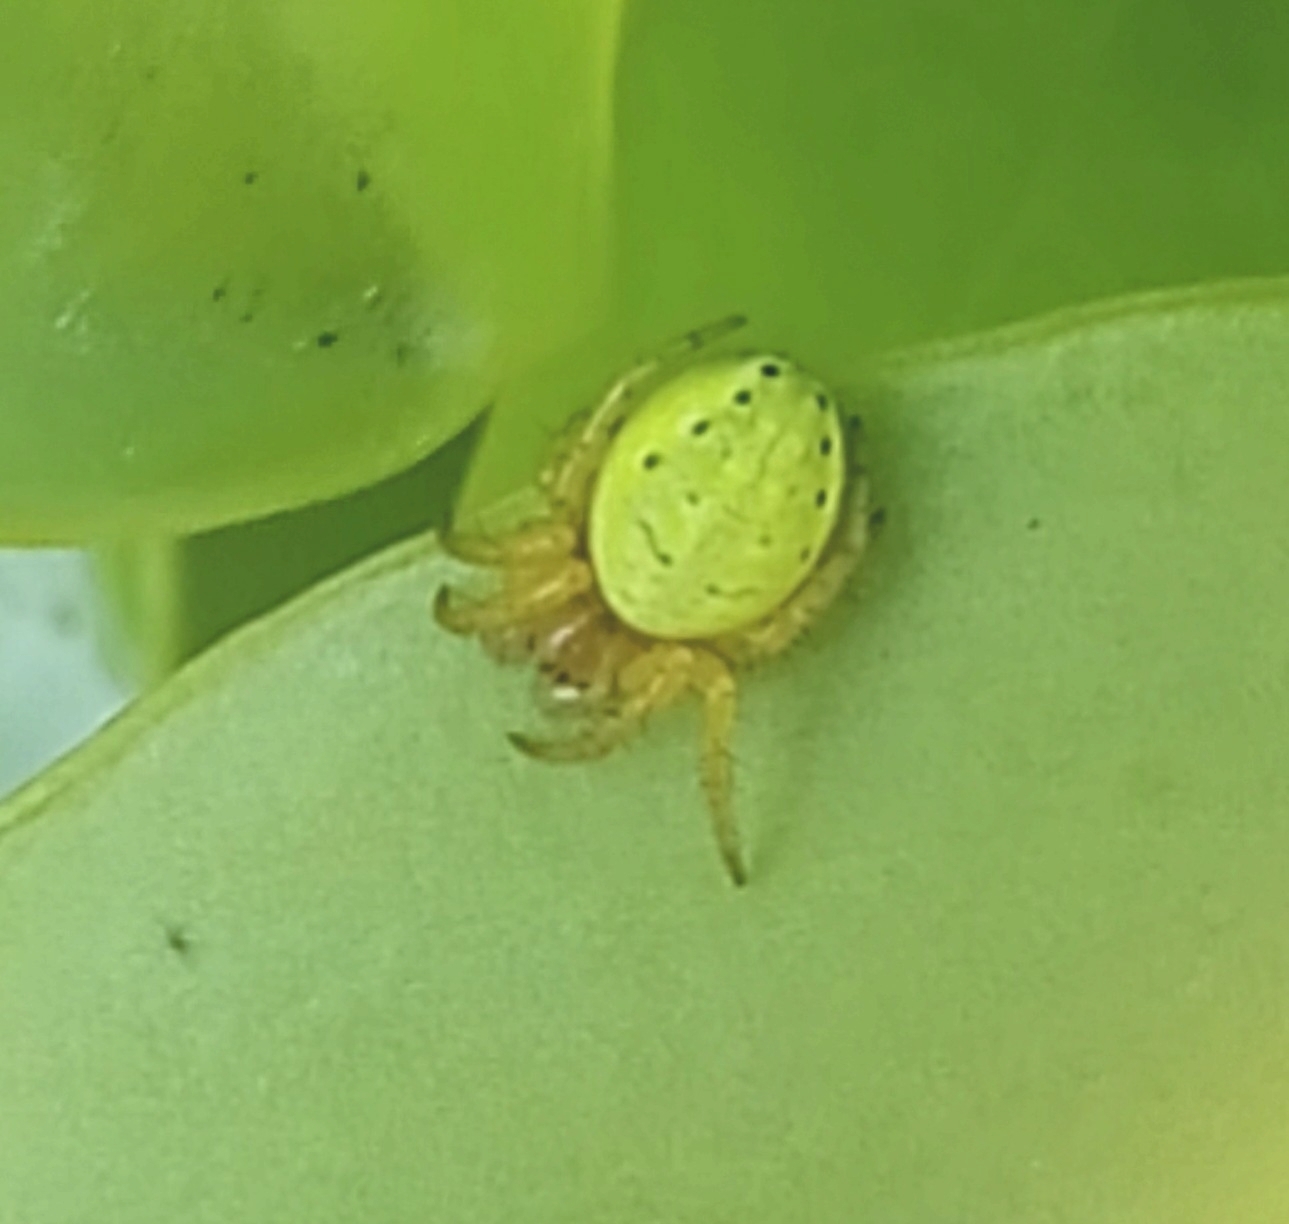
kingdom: Animalia
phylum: Arthropoda
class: Arachnida
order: Araneae
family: Araneidae
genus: Araniella
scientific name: Araniella cucurbitina
